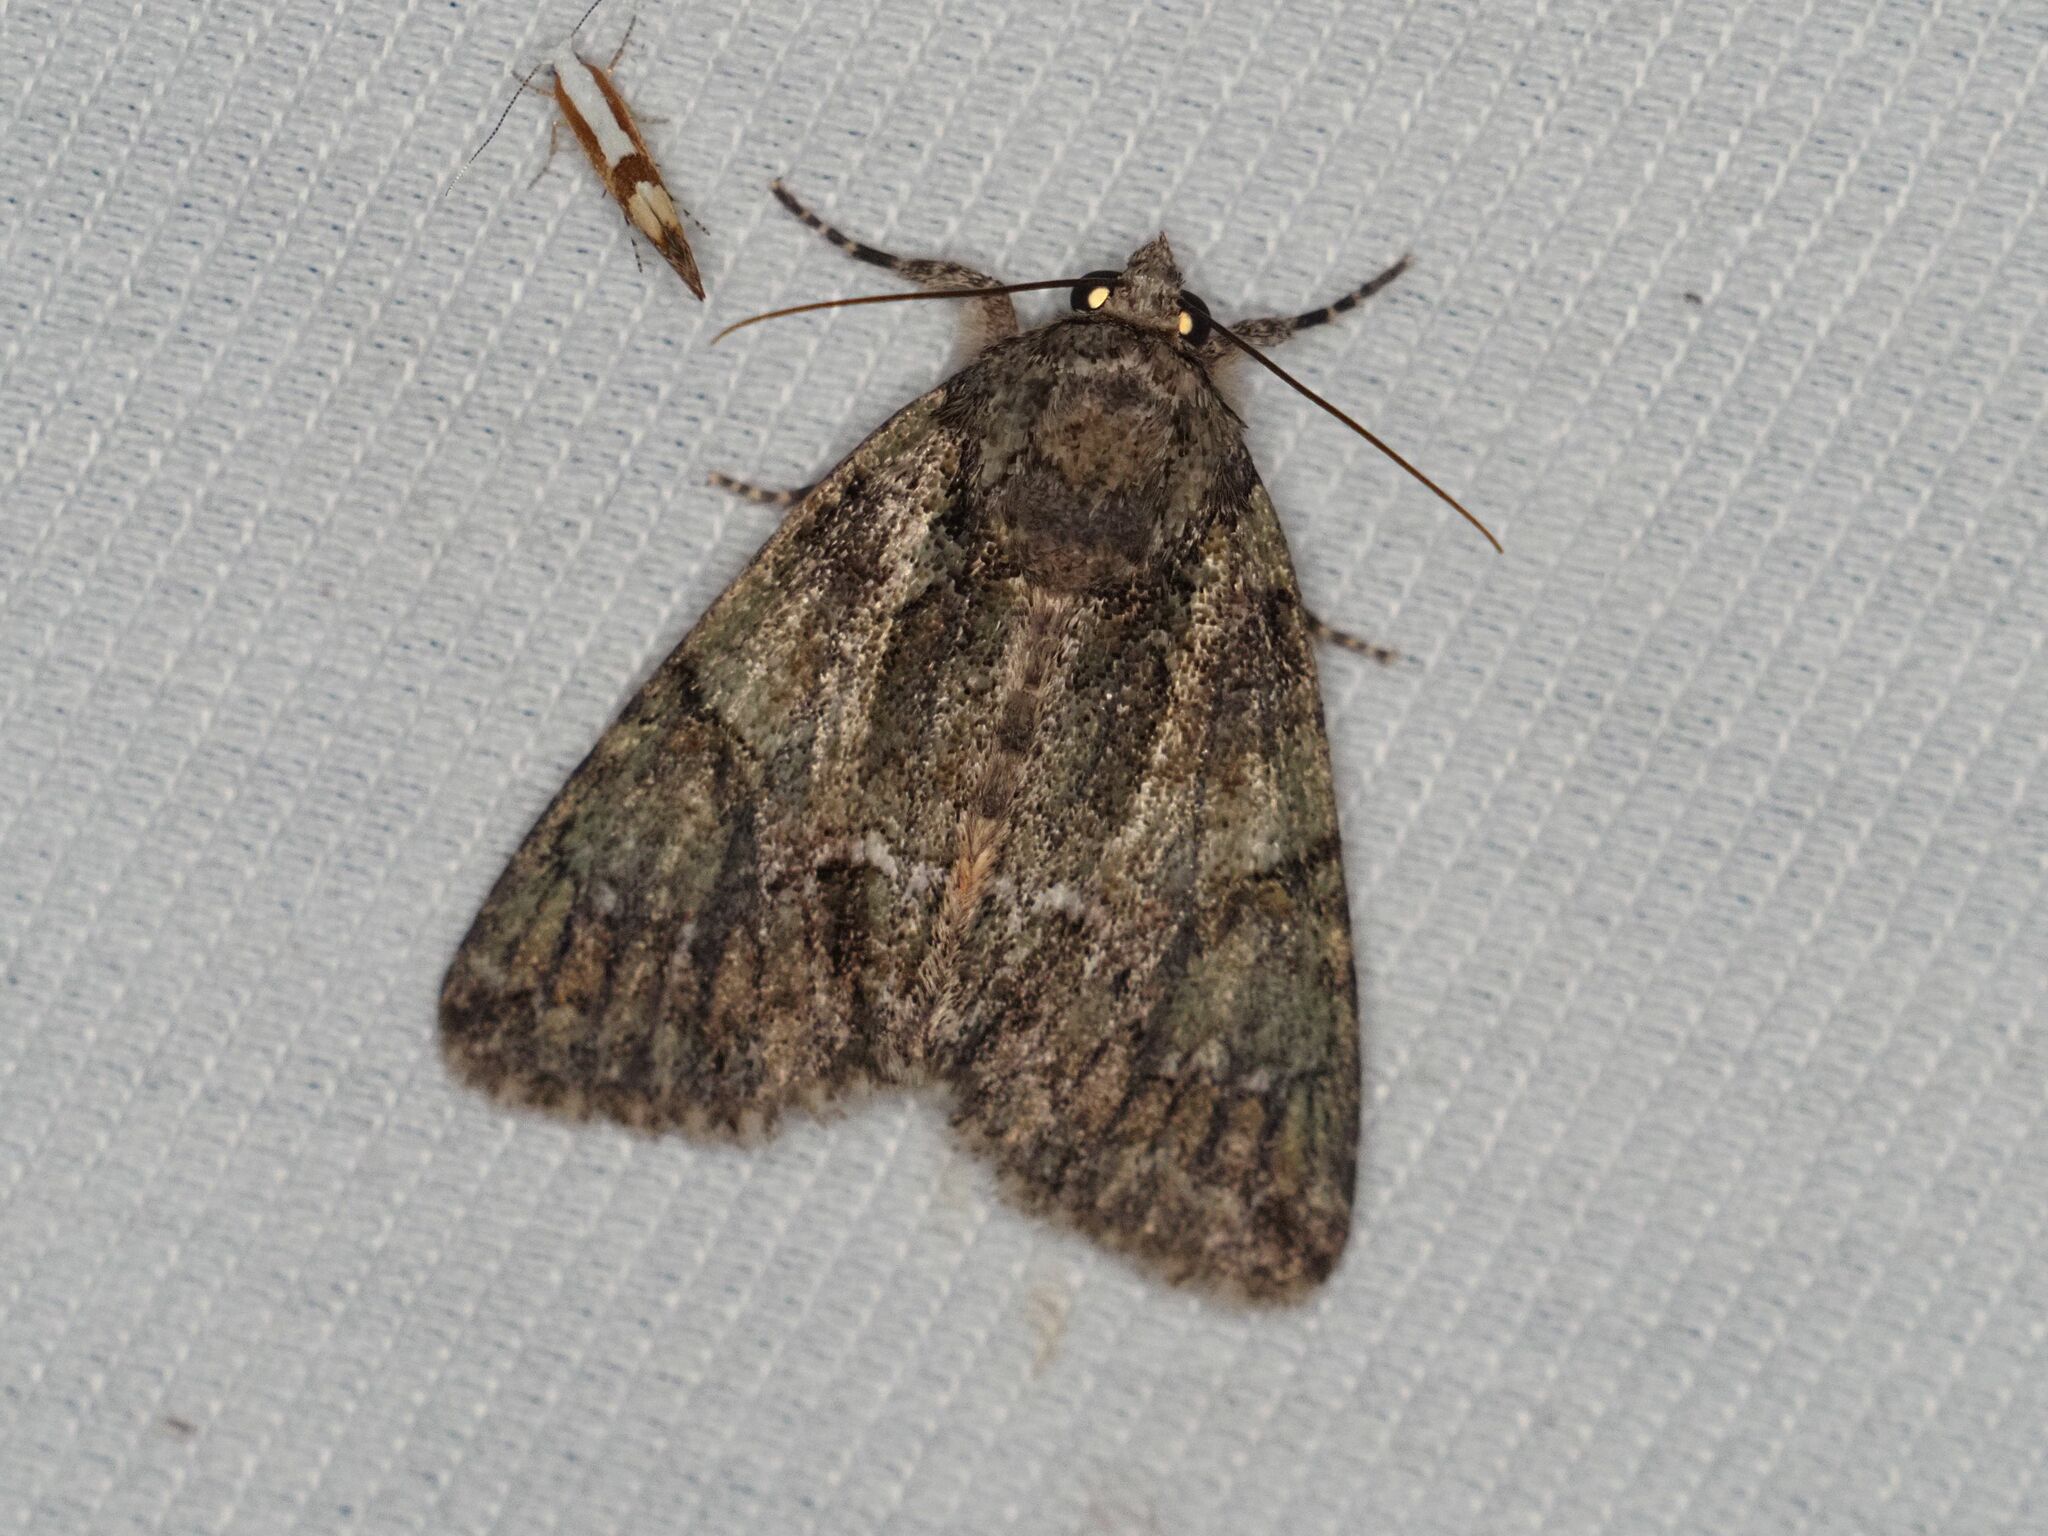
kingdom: Animalia
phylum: Arthropoda
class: Insecta
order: Lepidoptera
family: Noctuidae
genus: Polyphaenis
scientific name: Polyphaenis sericata
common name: Guernsey underwing
